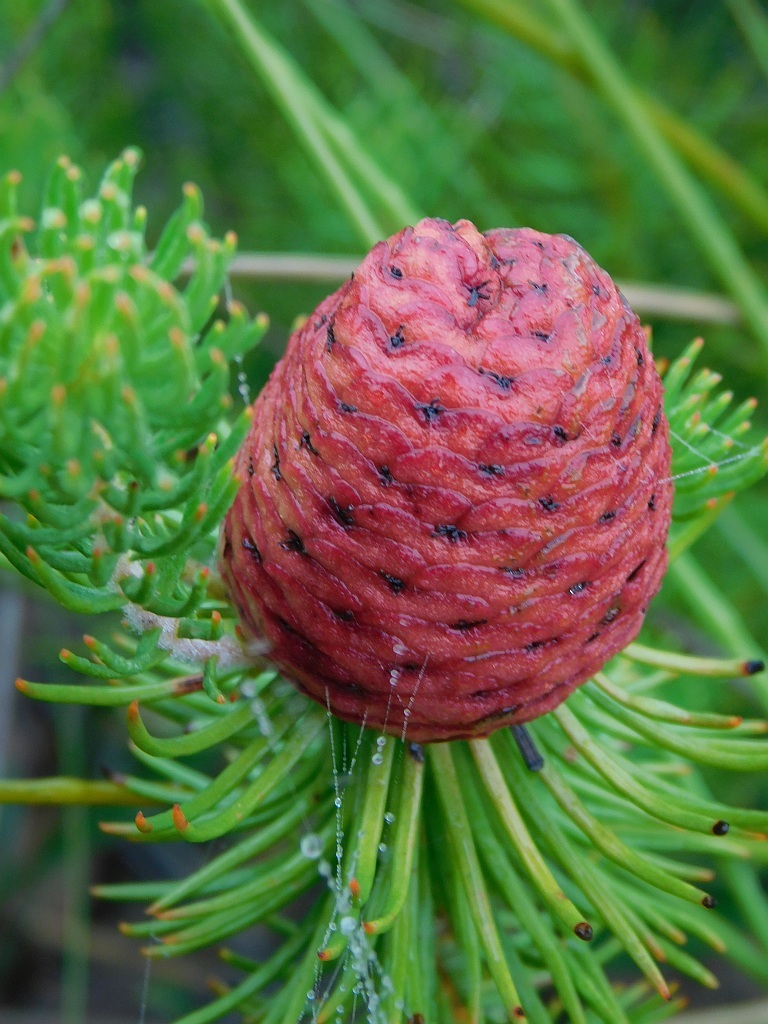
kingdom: Plantae
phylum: Tracheophyta
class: Magnoliopsida
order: Proteales
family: Proteaceae
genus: Leucadendron
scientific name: Leucadendron teretifolium
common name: Needle-leaf conebush
